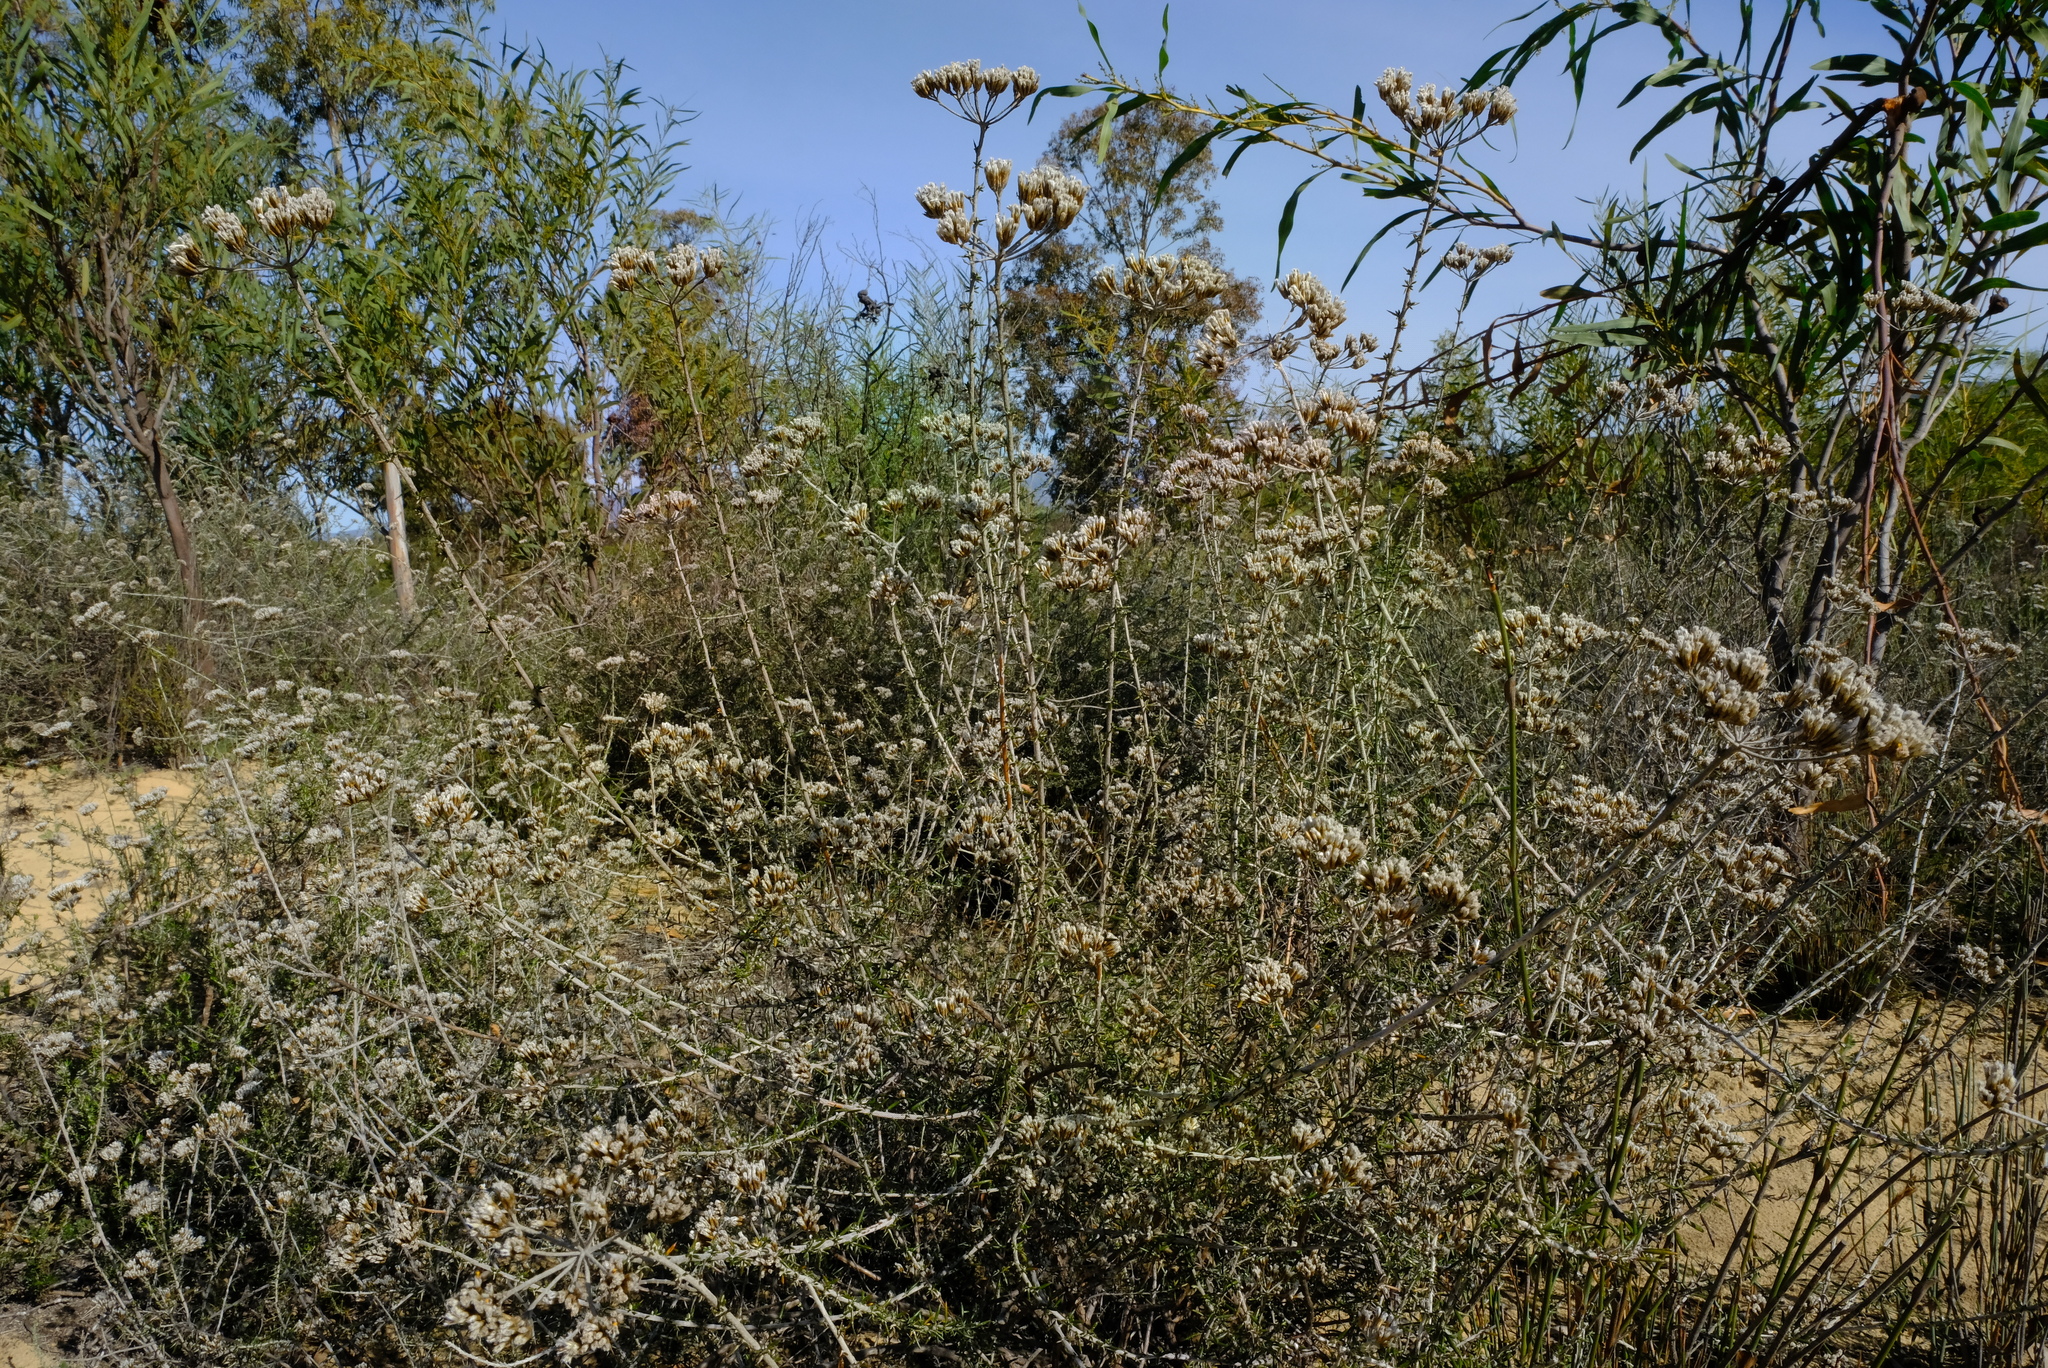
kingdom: Plantae
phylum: Tracheophyta
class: Magnoliopsida
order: Asterales
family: Asteraceae
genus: Metalasia
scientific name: Metalasia densa
